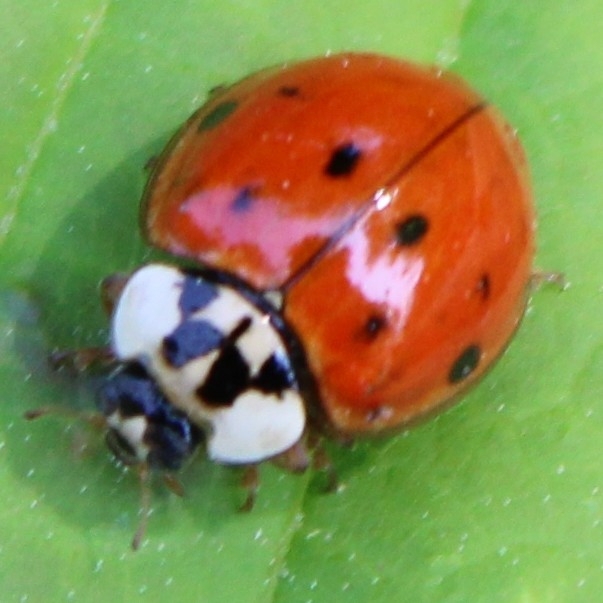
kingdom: Animalia
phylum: Arthropoda
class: Insecta
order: Coleoptera
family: Coccinellidae
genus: Harmonia
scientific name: Harmonia axyridis
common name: Harlequin ladybird
